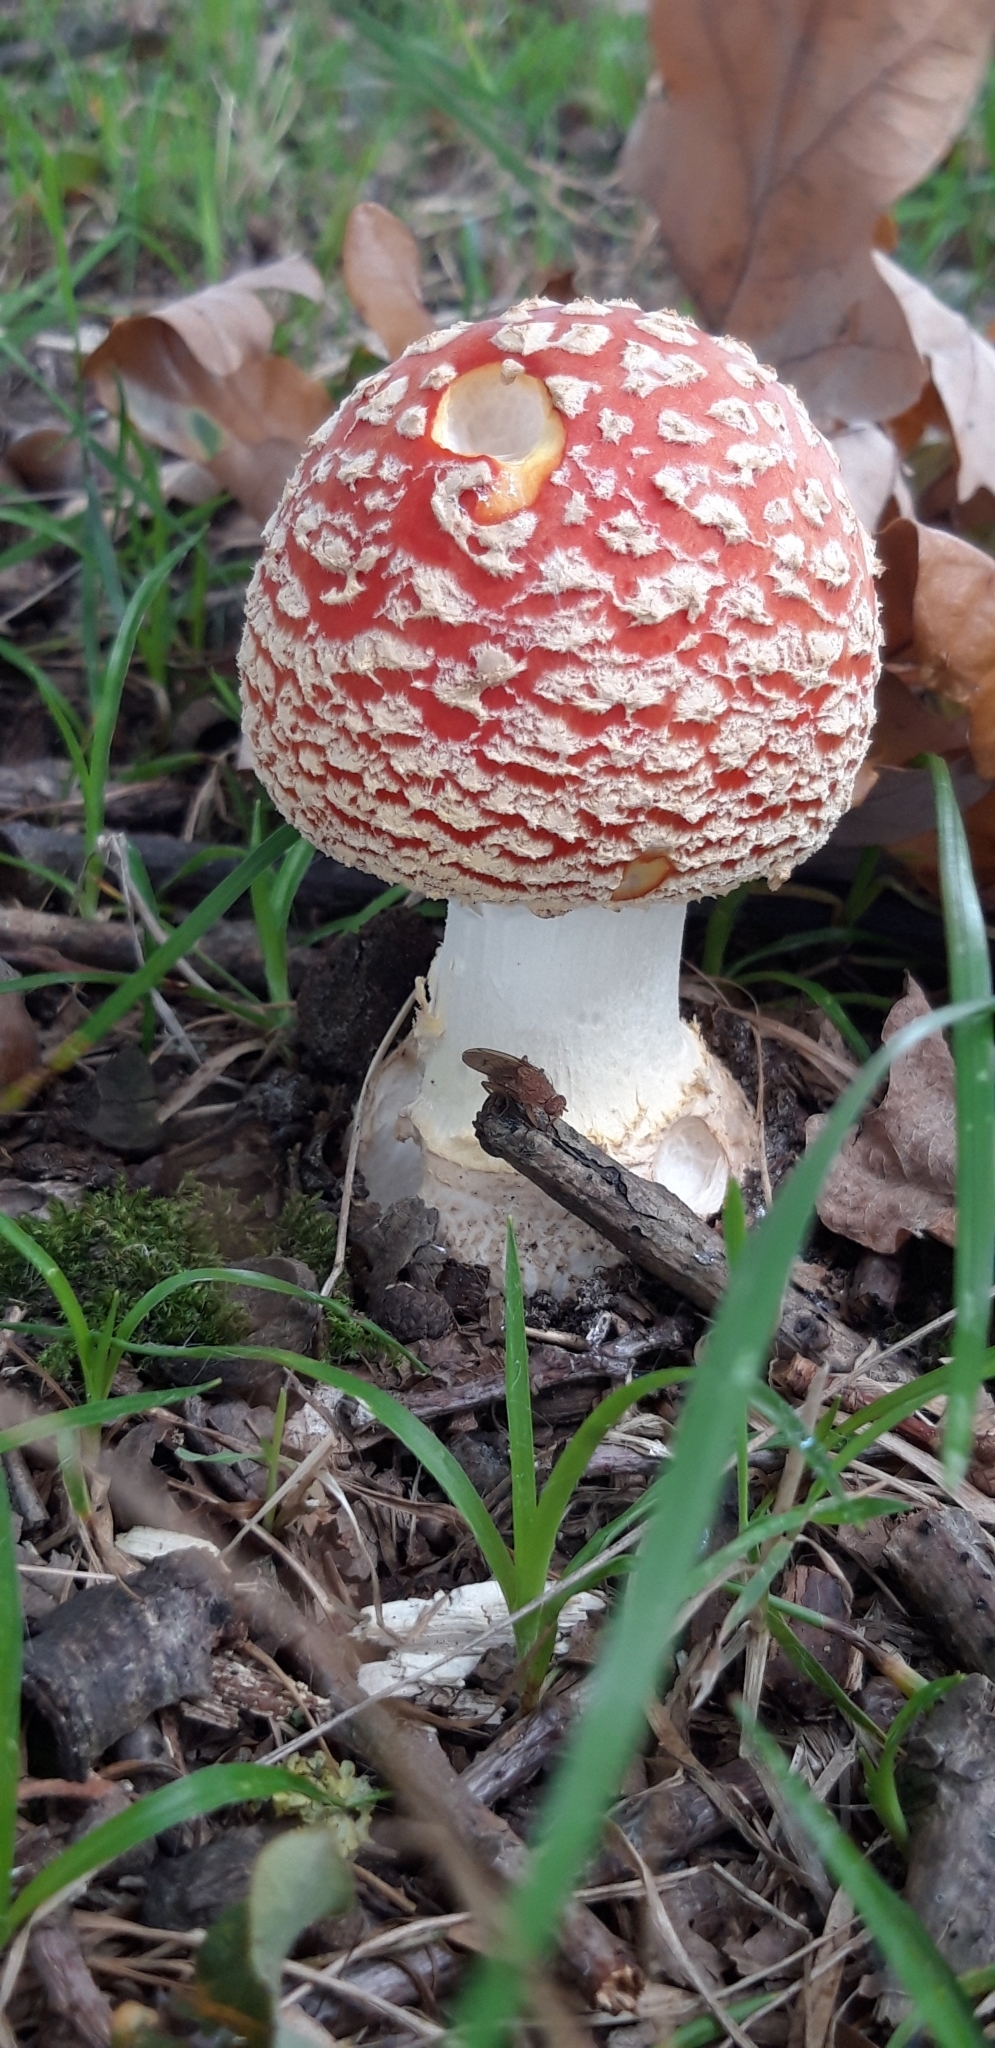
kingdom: Fungi
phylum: Basidiomycota
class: Agaricomycetes
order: Agaricales
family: Amanitaceae
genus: Amanita
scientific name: Amanita muscaria
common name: Fly agaric
